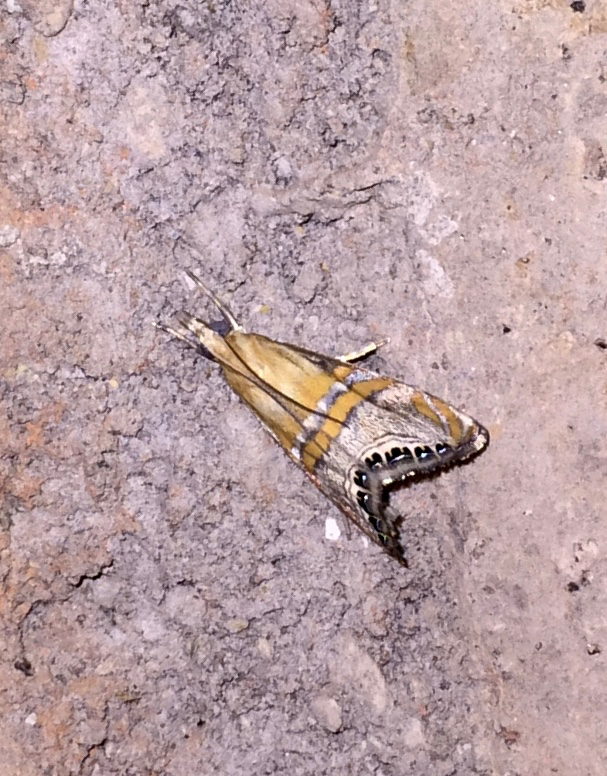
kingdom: Animalia
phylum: Arthropoda
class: Insecta
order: Lepidoptera
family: Crambidae
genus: Euchromius
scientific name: Euchromius bella
